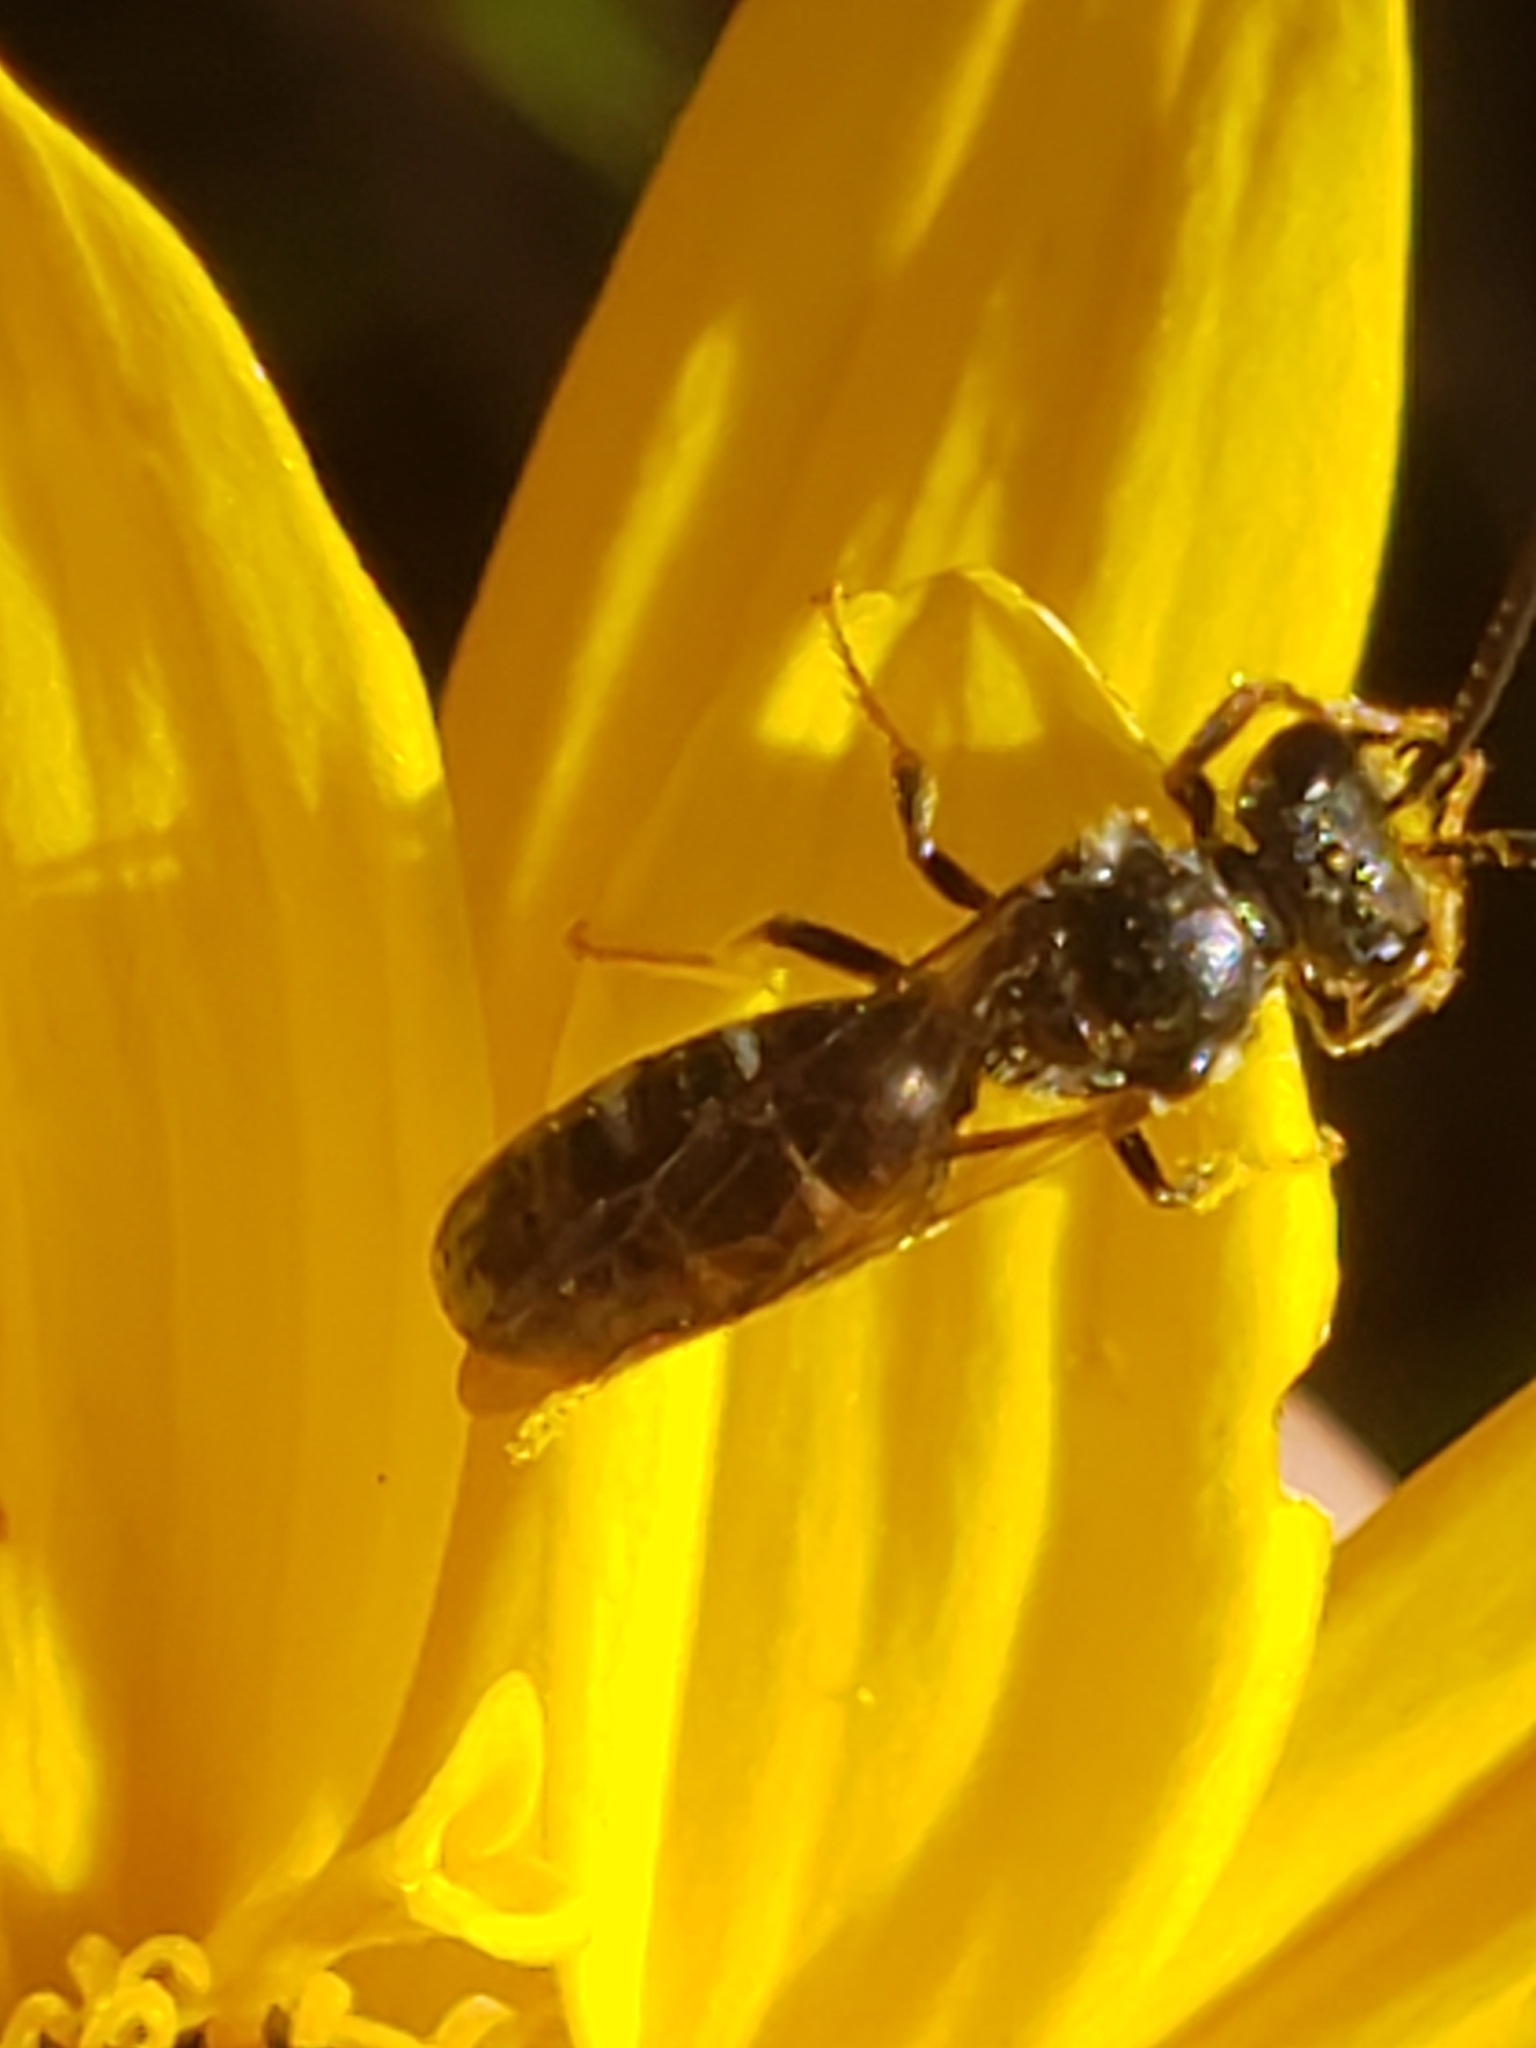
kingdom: Animalia
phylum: Arthropoda
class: Insecta
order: Hymenoptera
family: Halictidae
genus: Lasioglossum
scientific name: Lasioglossum fuscipenne
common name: Brown-winged sweat bee
